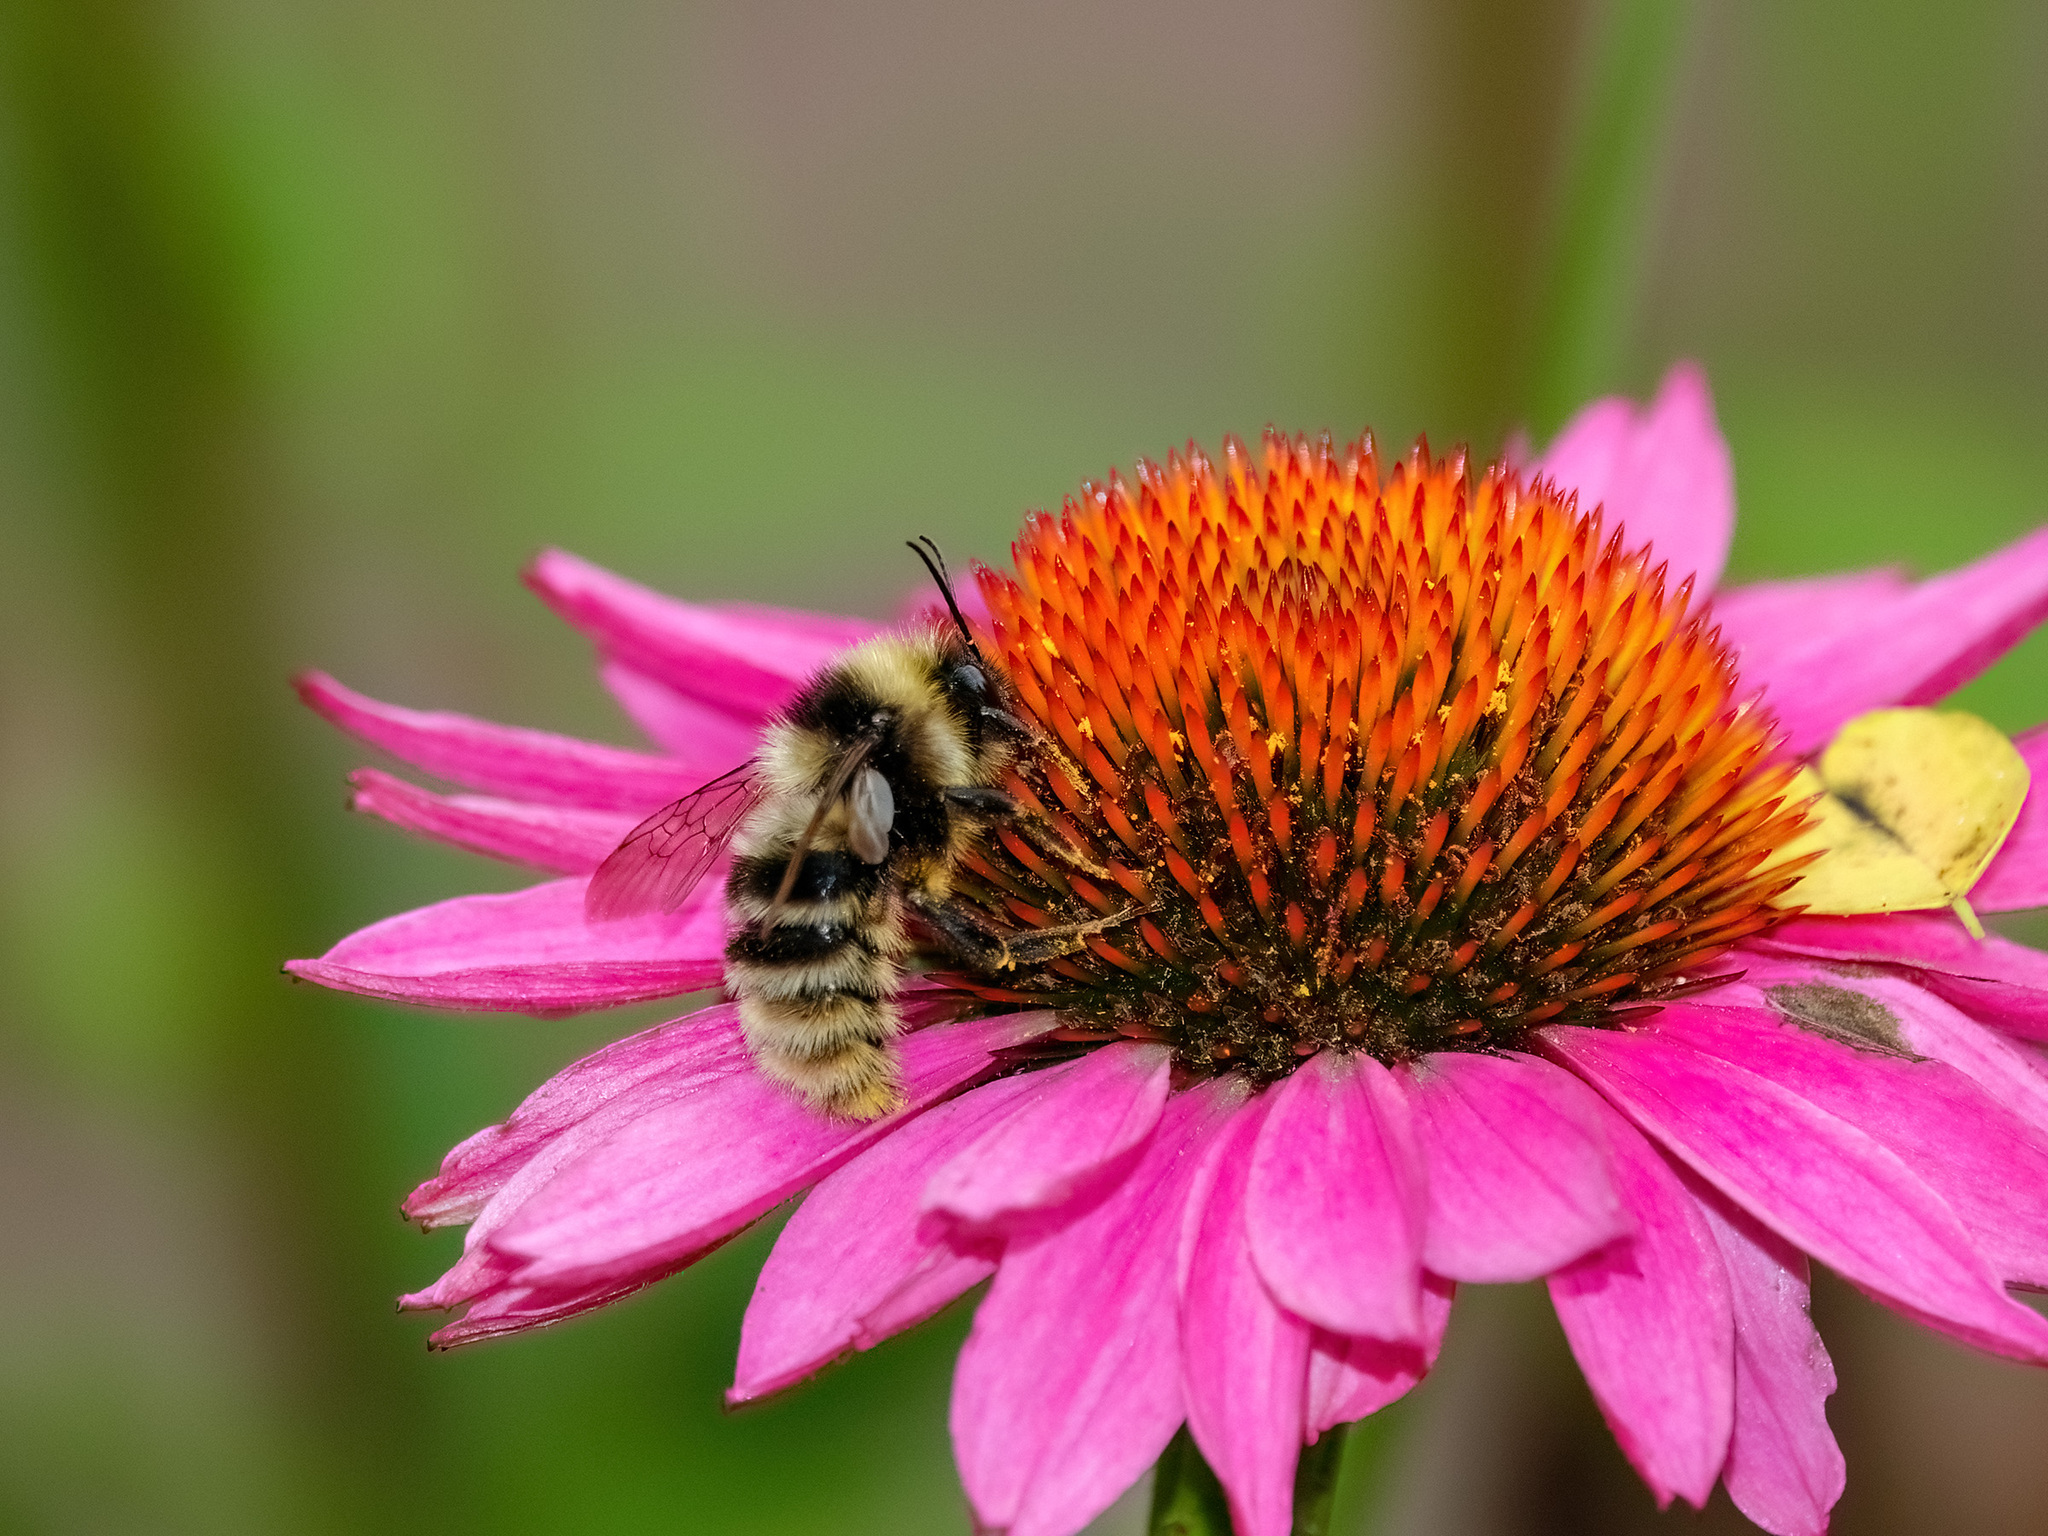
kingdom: Animalia
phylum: Arthropoda
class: Insecta
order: Hymenoptera
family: Apidae
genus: Bombus
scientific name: Bombus subterraneus
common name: Short-haired humble-bee
